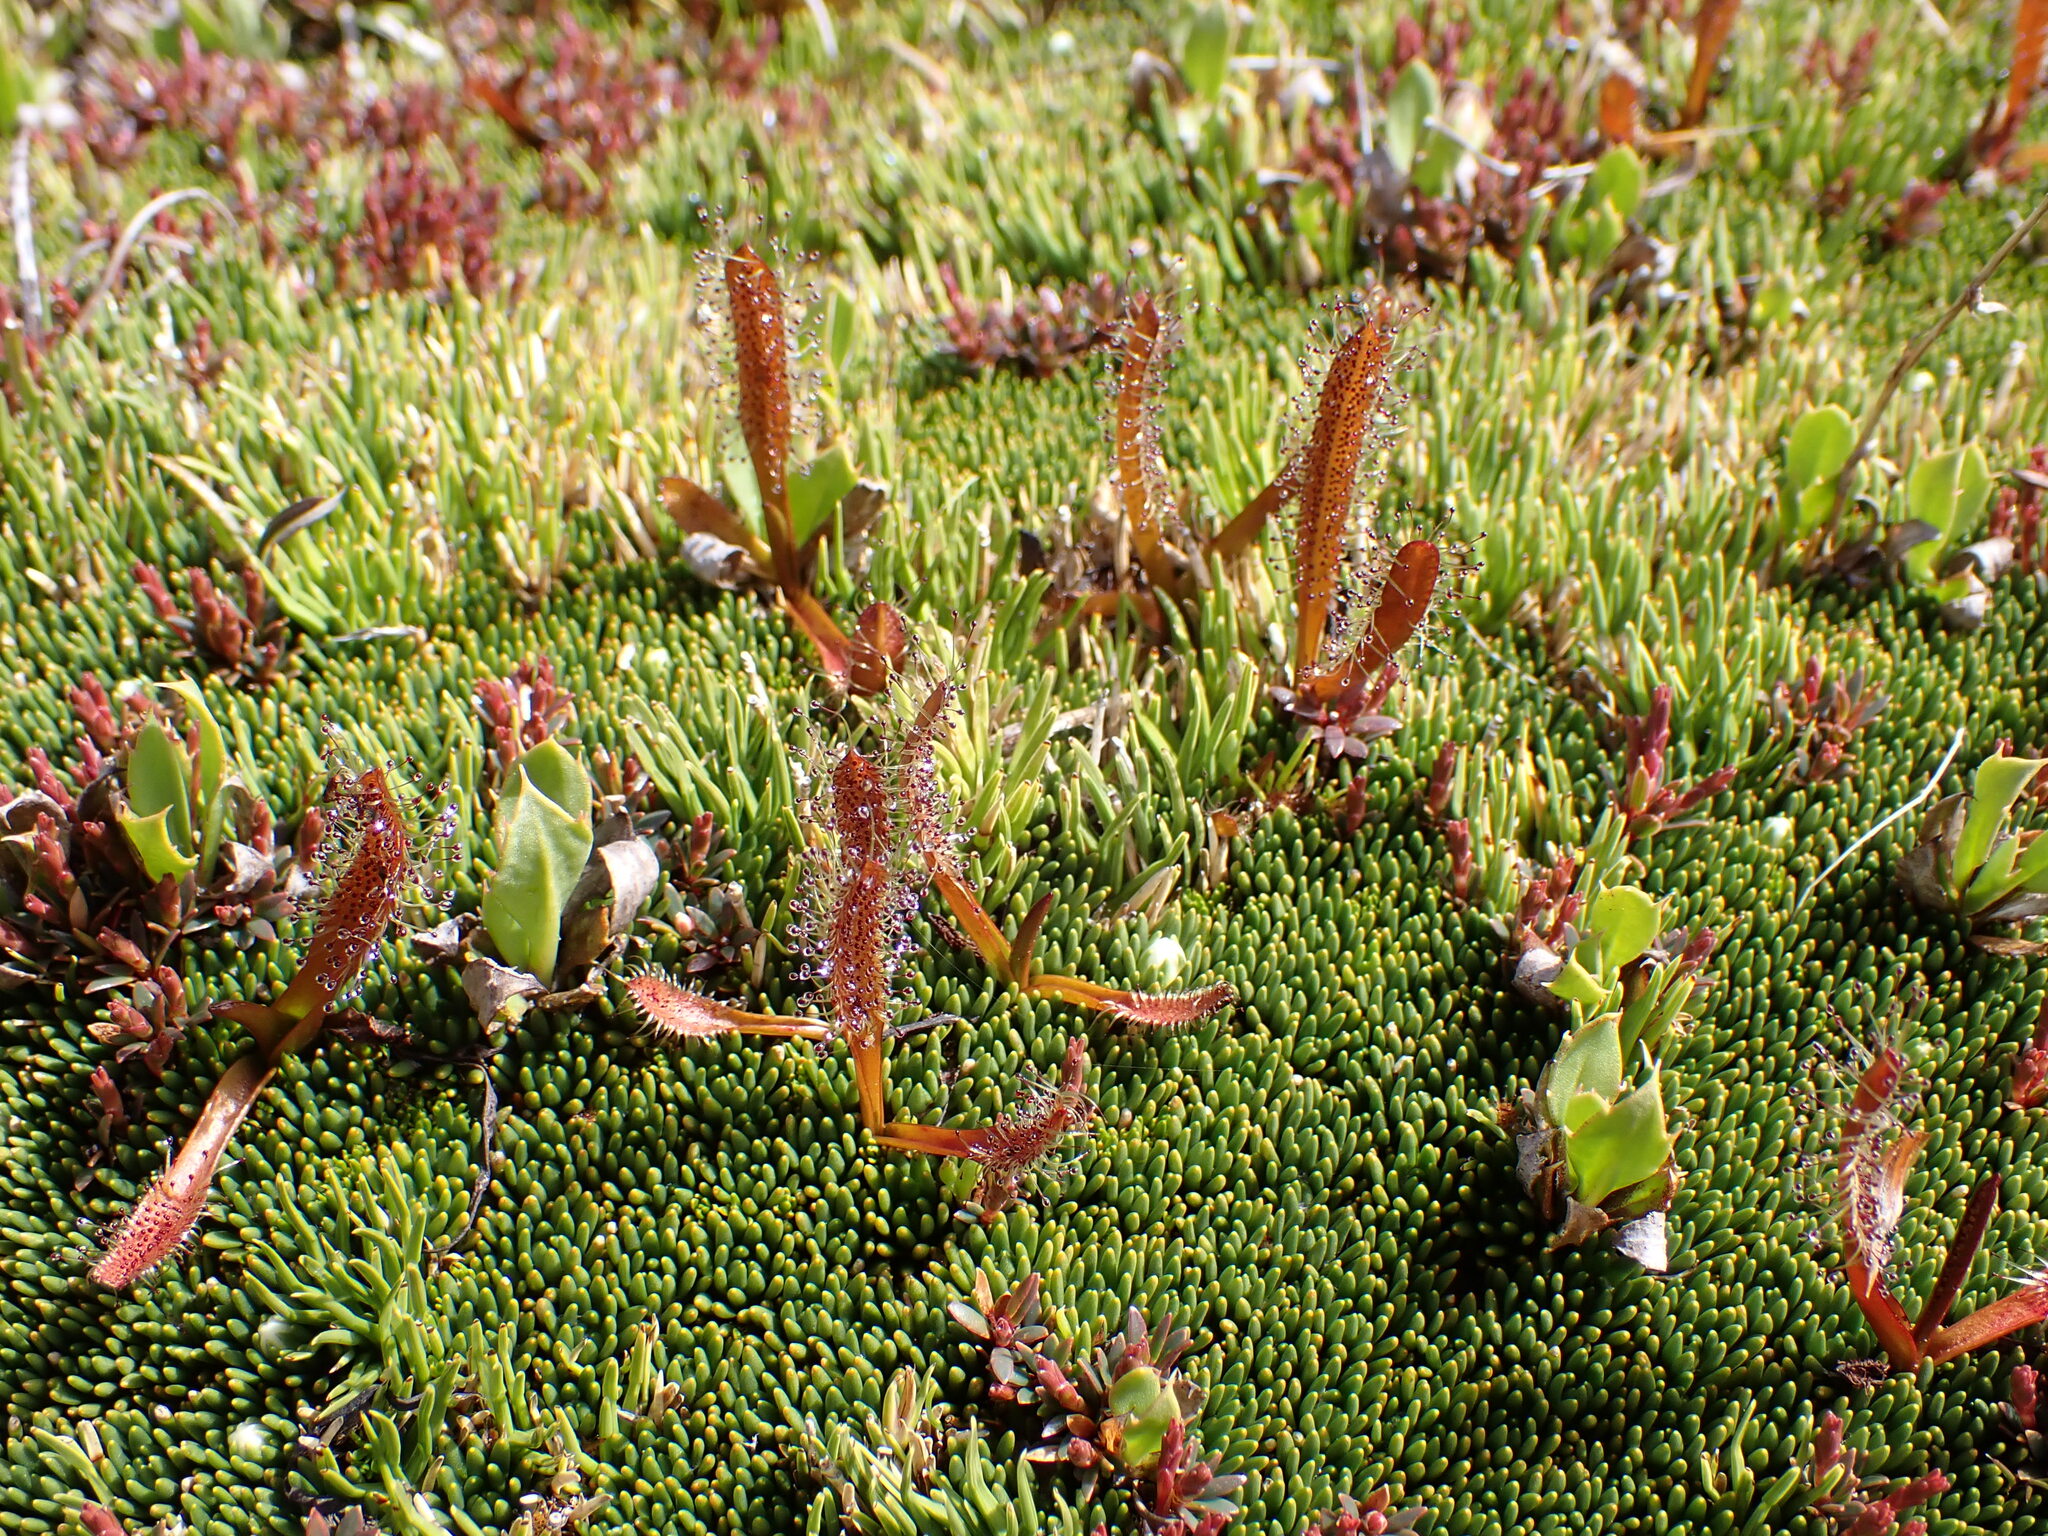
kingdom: Plantae
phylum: Tracheophyta
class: Magnoliopsida
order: Caryophyllales
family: Droseraceae
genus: Drosera
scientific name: Drosera arcturi
